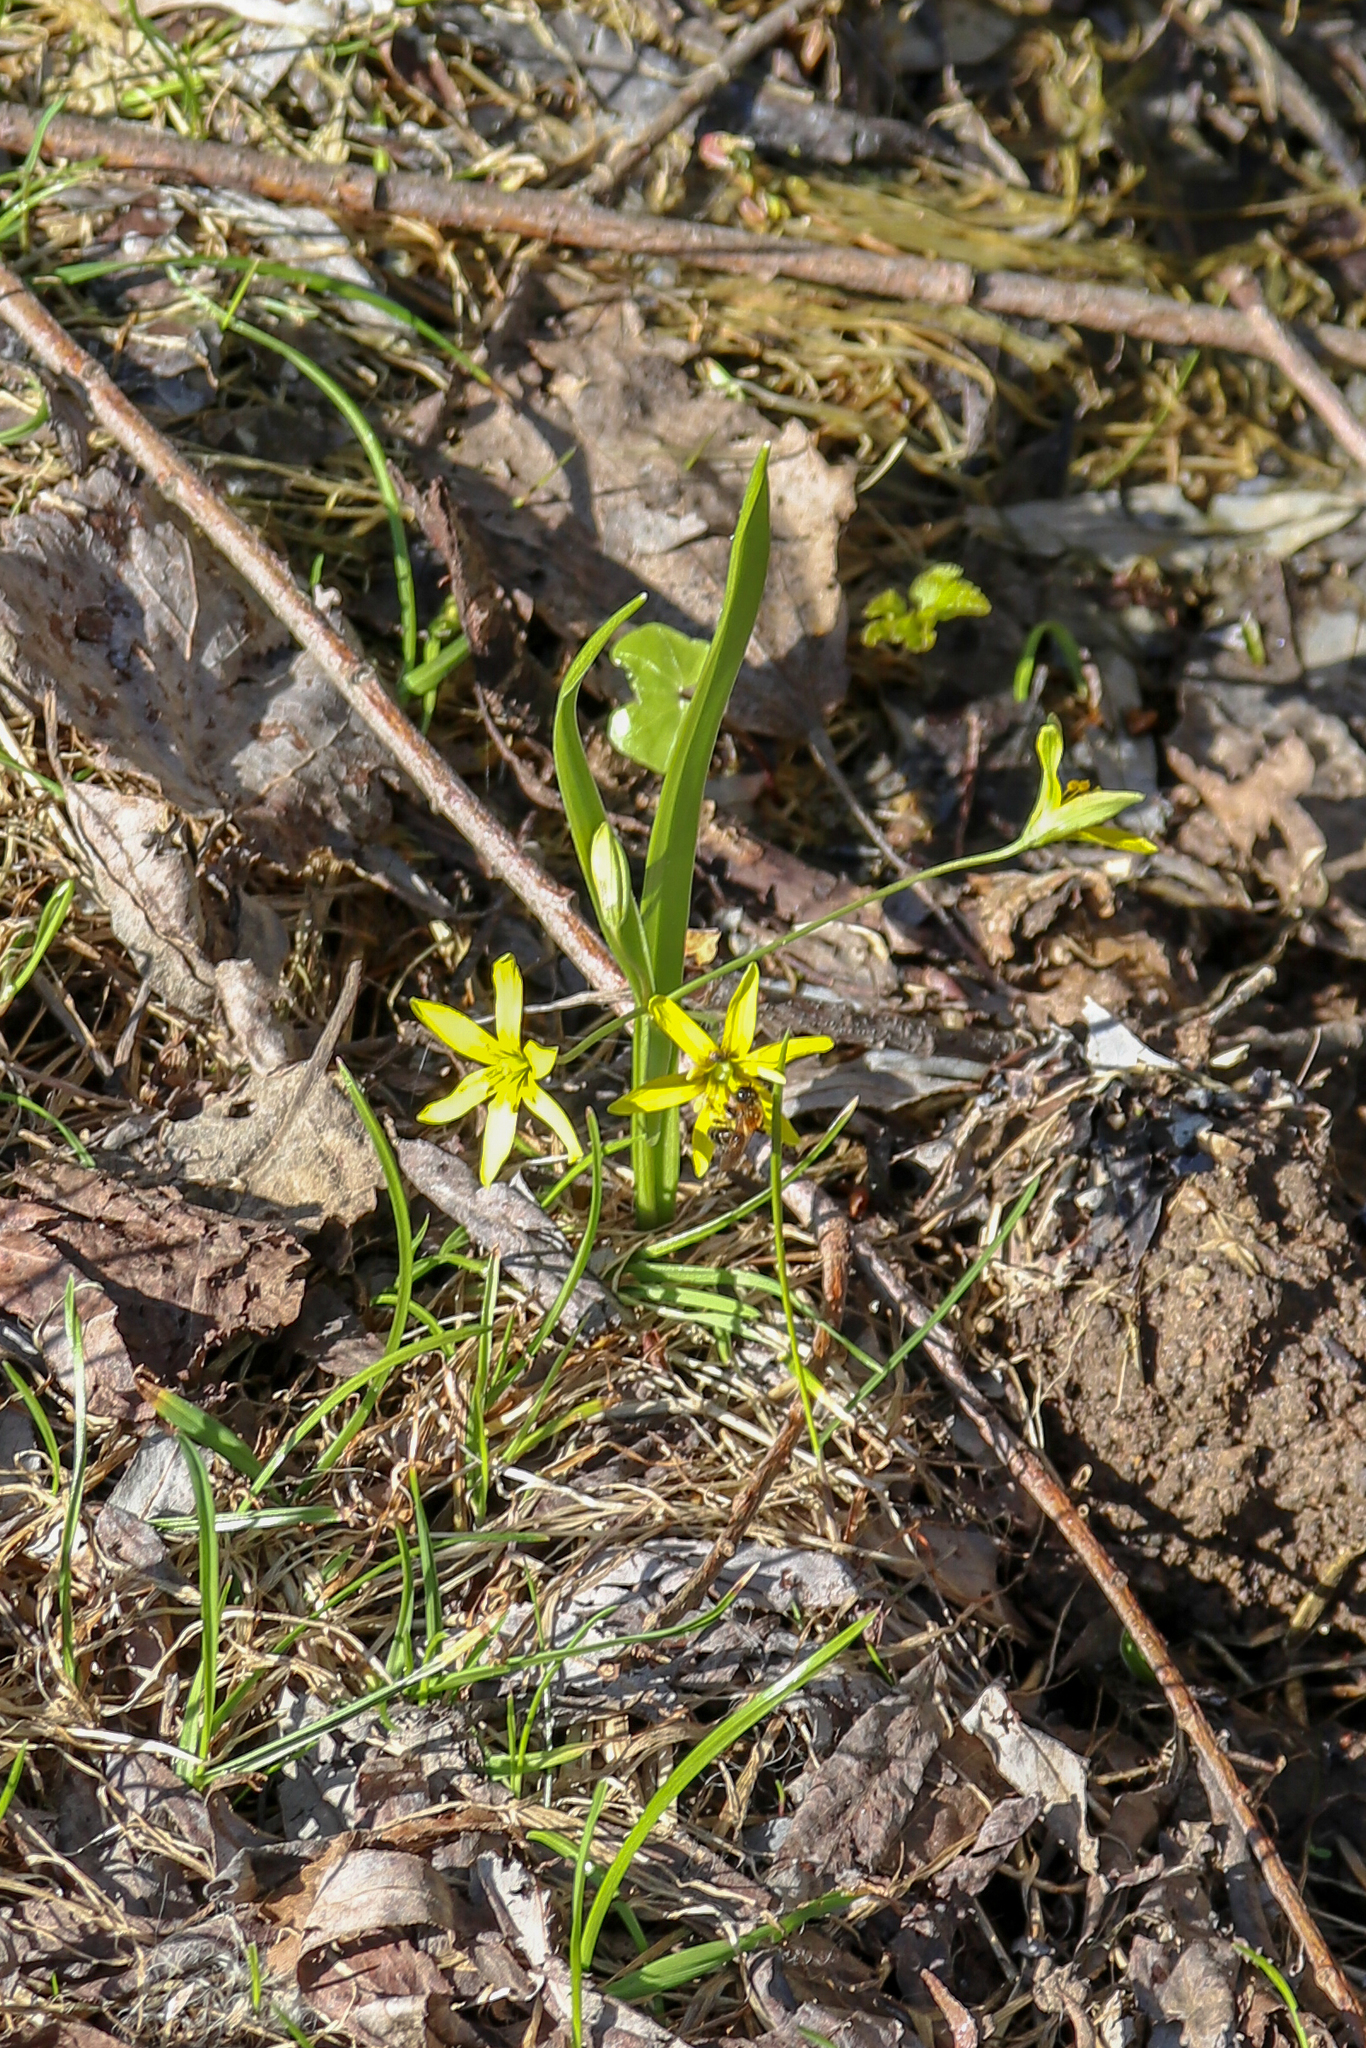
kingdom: Plantae
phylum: Tracheophyta
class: Liliopsida
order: Liliales
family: Liliaceae
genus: Gagea
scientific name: Gagea lutea
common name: Yellow star-of-bethlehem
